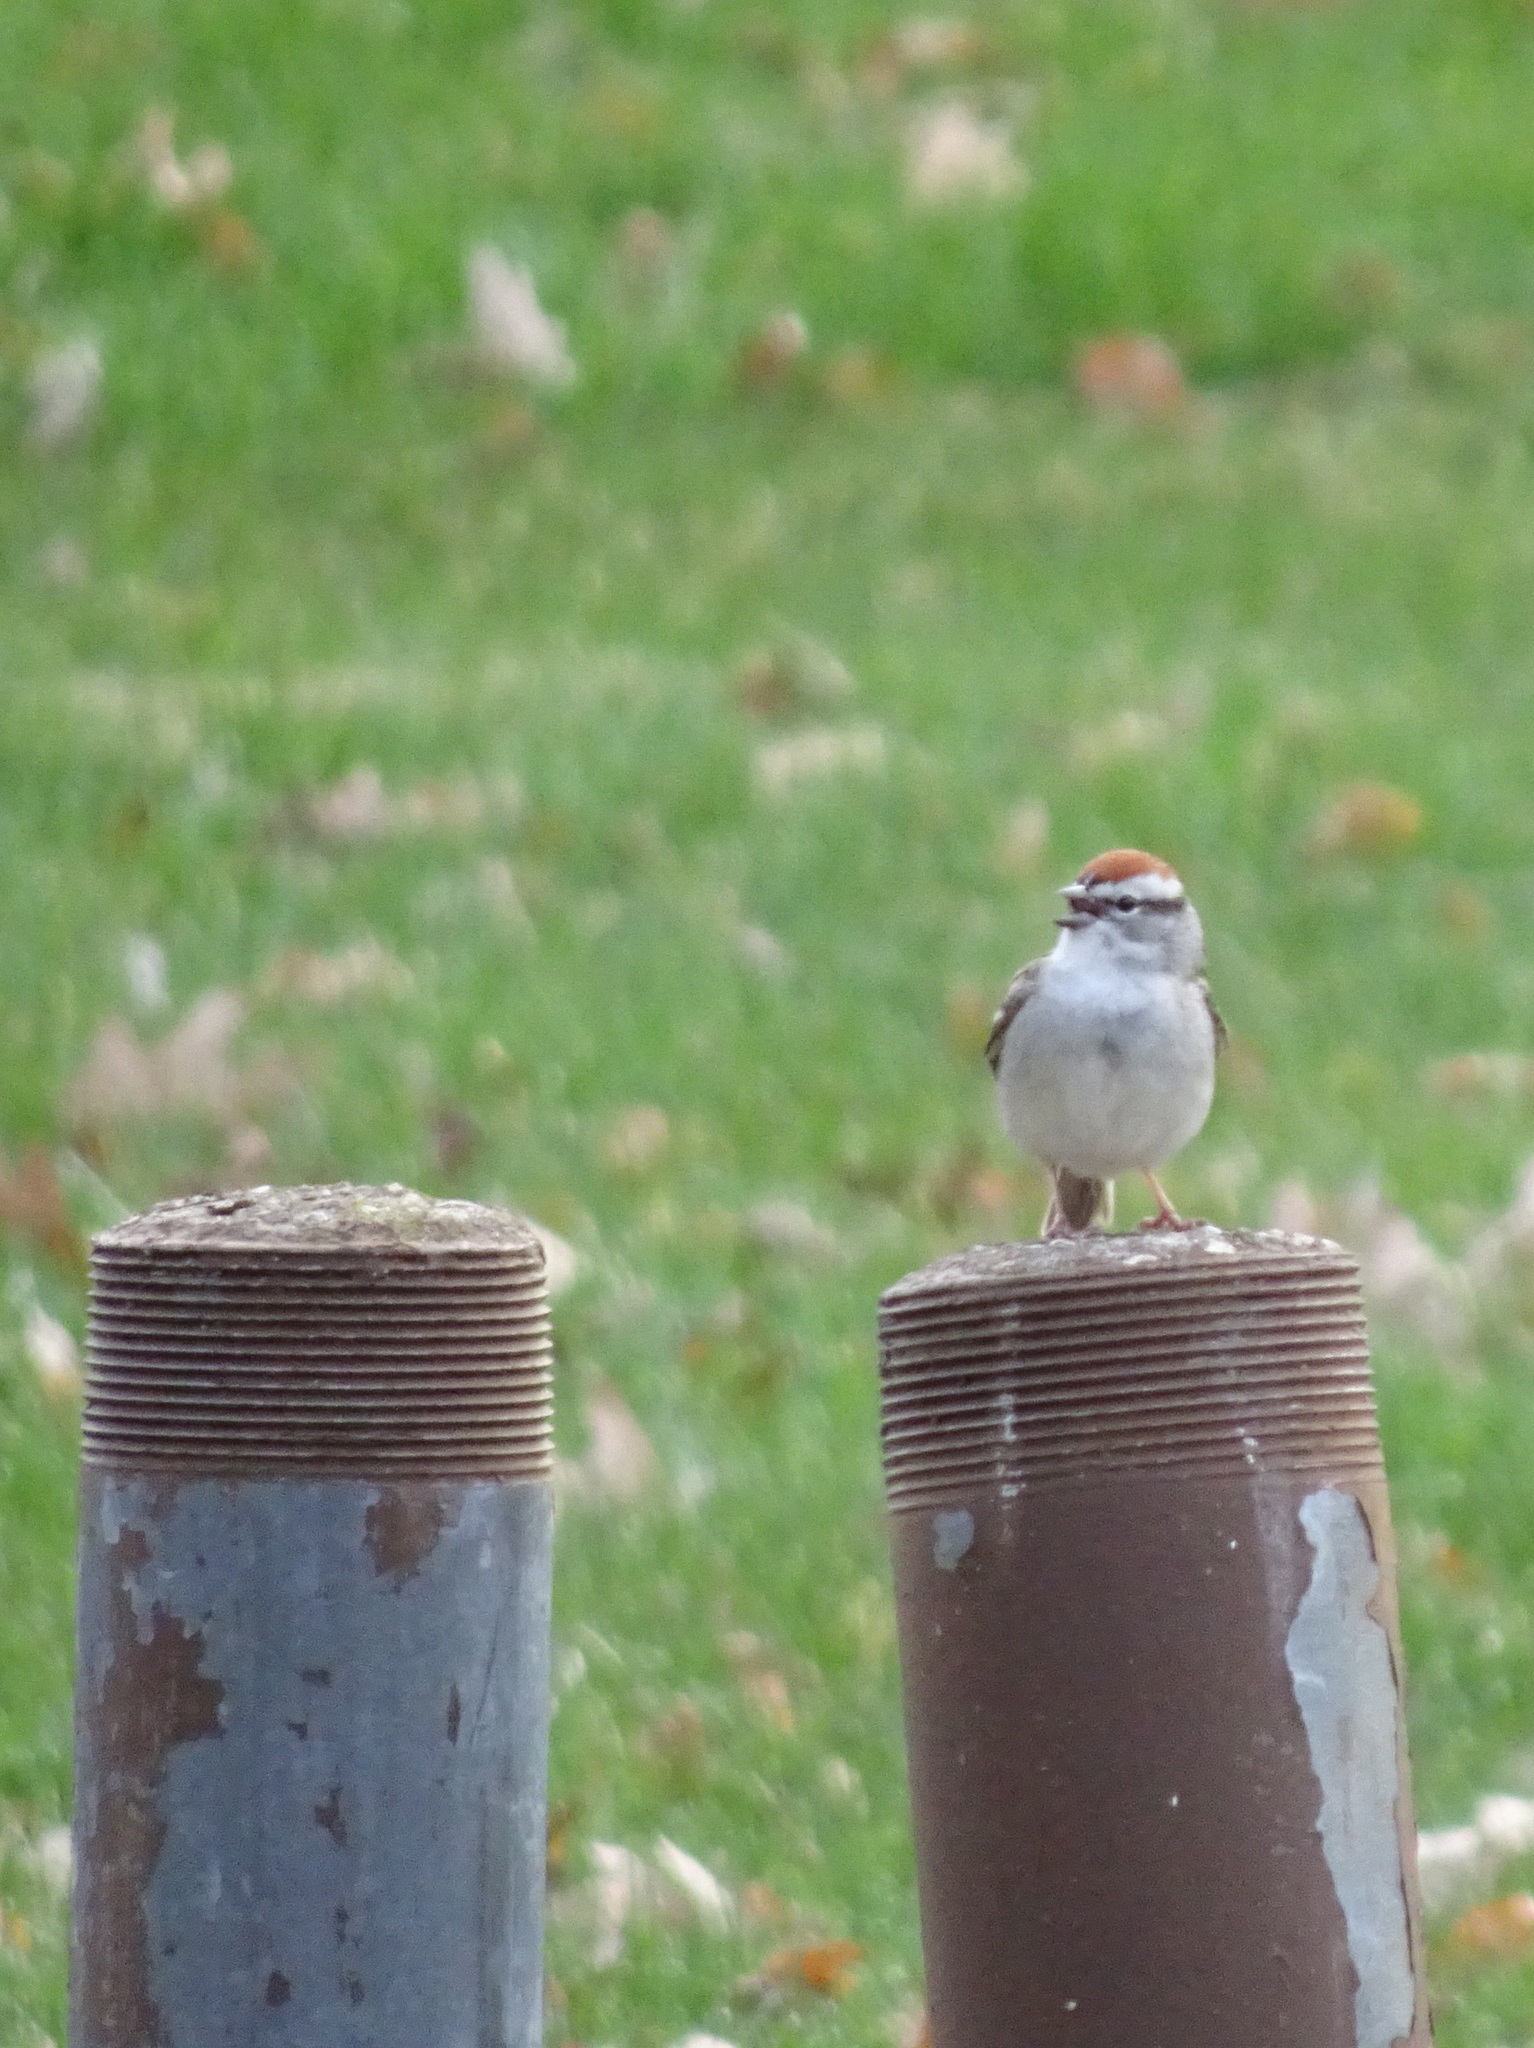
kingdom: Animalia
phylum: Chordata
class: Aves
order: Passeriformes
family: Passerellidae
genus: Spizella
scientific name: Spizella passerina
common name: Chipping sparrow
